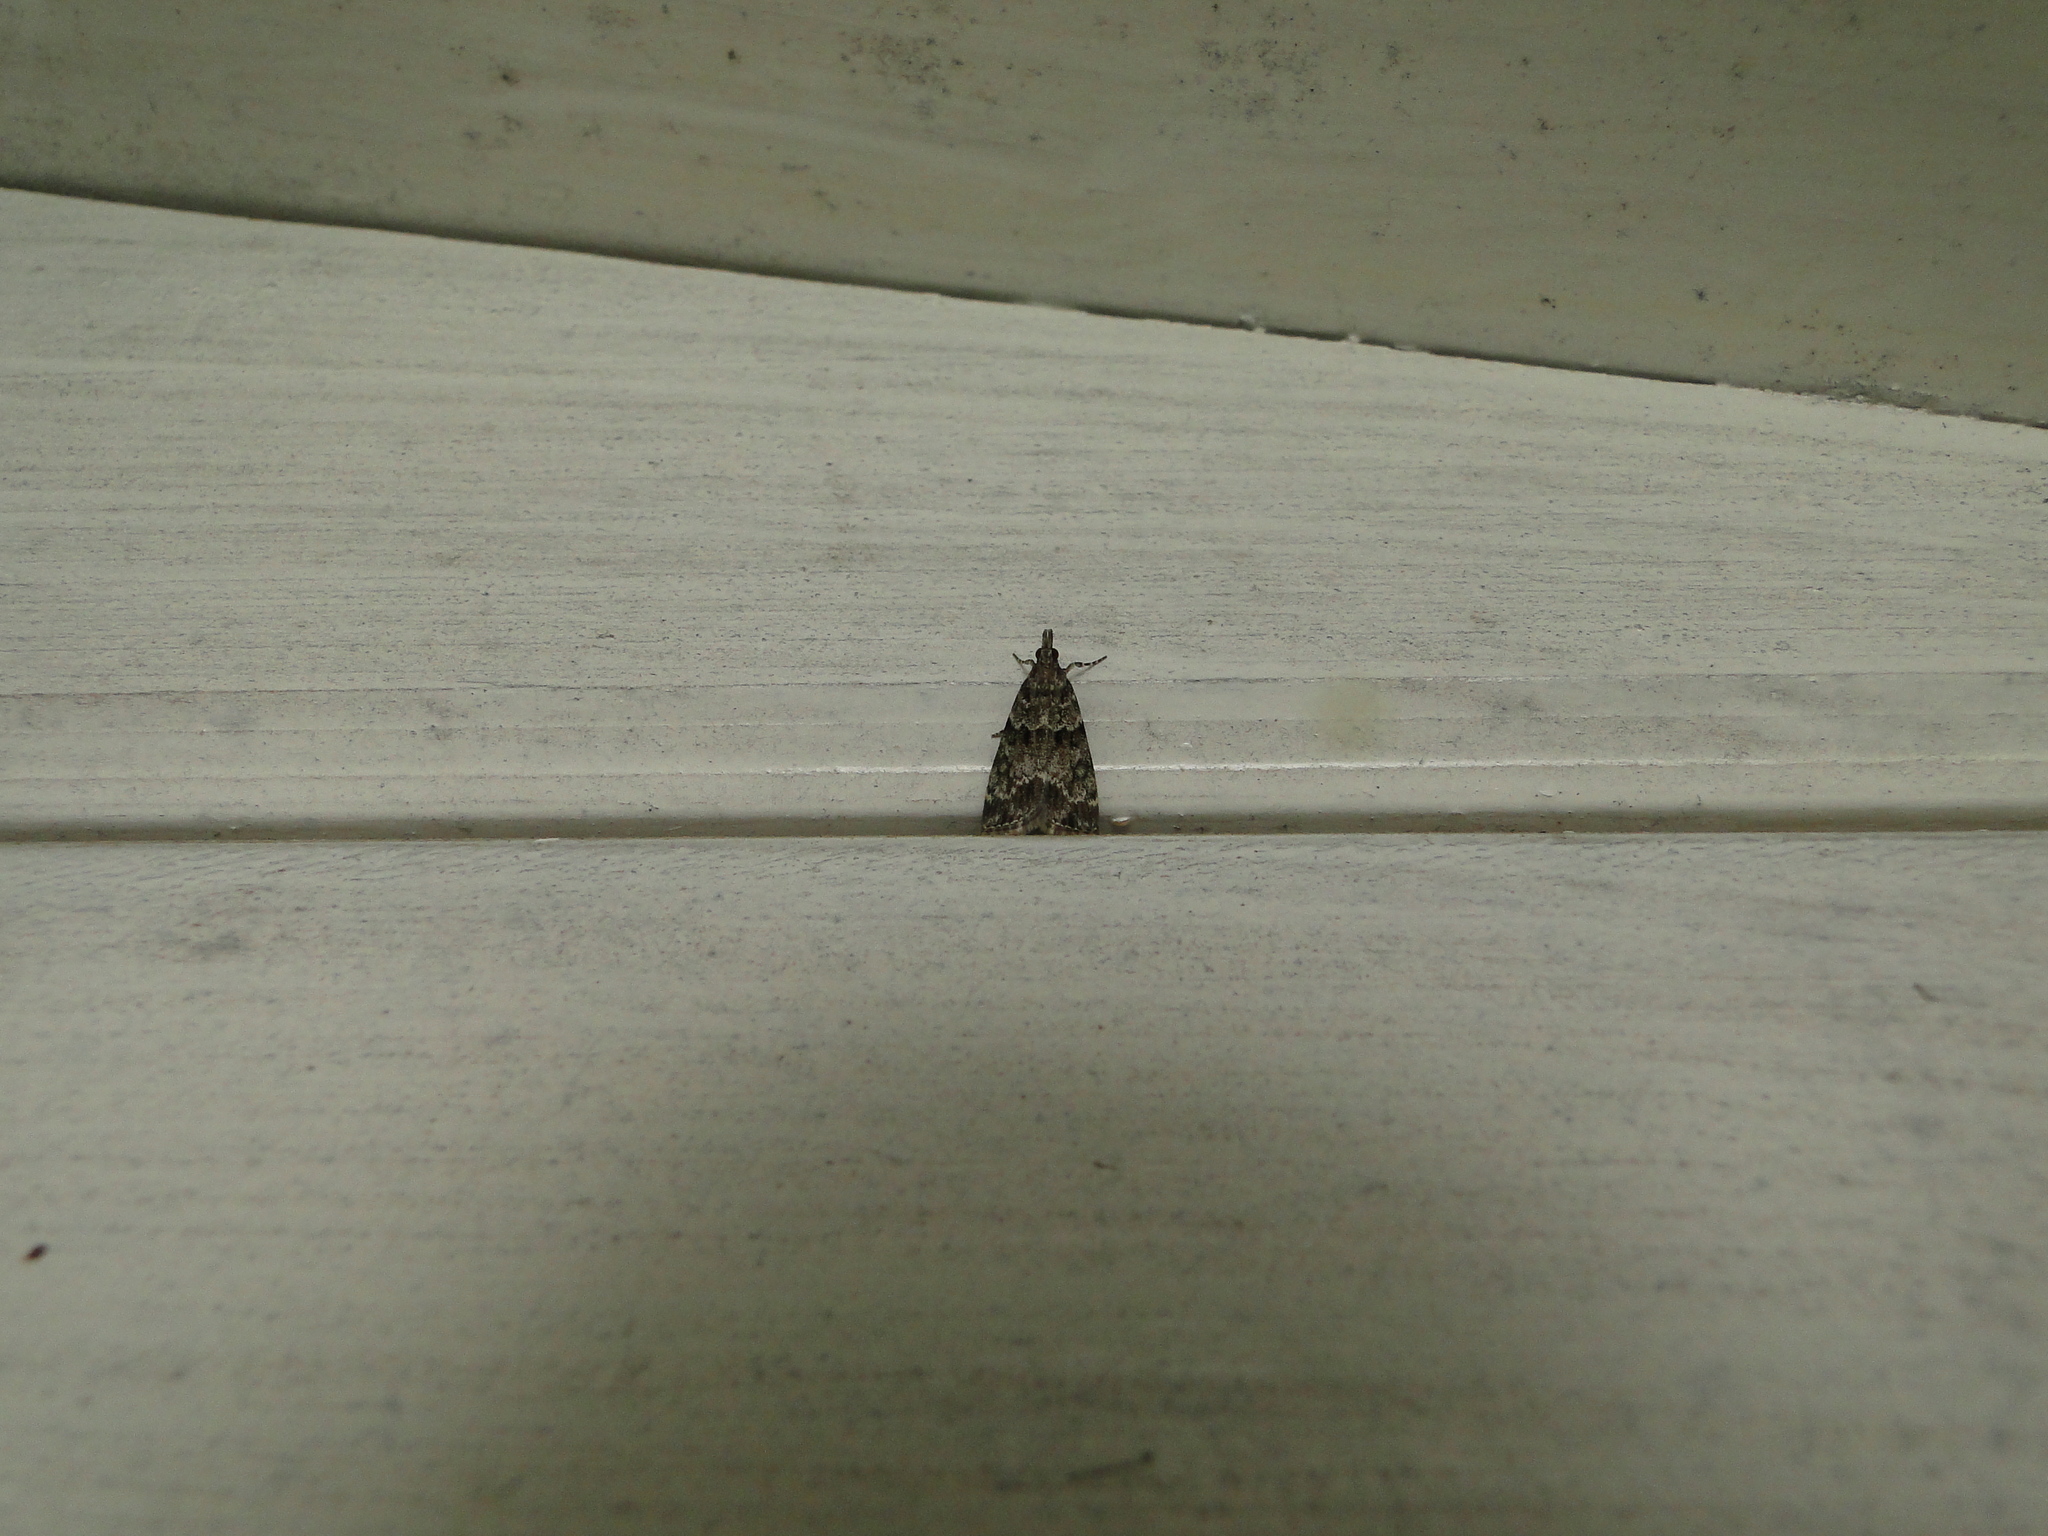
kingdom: Animalia
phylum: Arthropoda
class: Insecta
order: Lepidoptera
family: Crambidae
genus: Eudonia
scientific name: Eudonia mercurella
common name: Small grey
